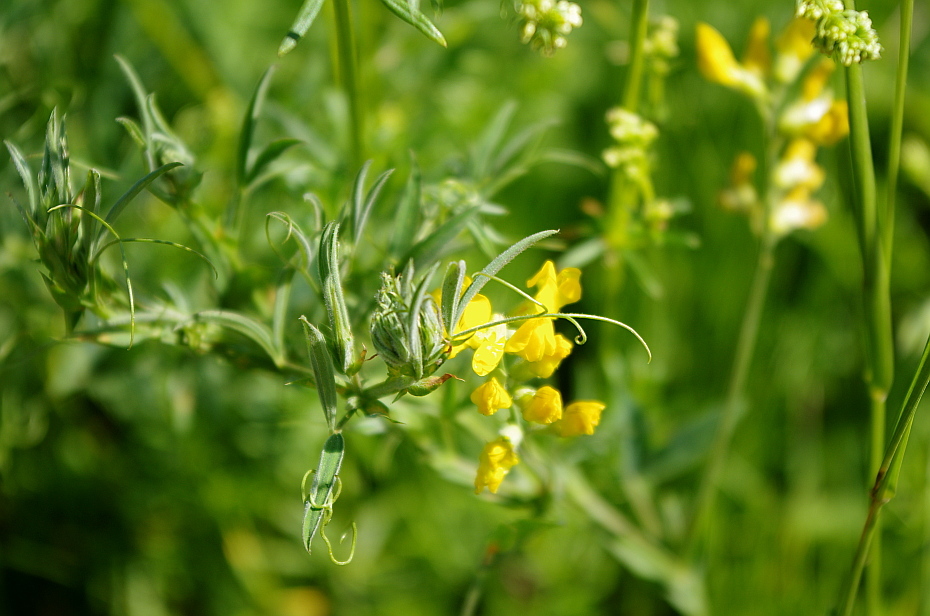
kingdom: Plantae
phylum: Tracheophyta
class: Magnoliopsida
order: Fabales
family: Fabaceae
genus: Lathyrus
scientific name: Lathyrus pratensis
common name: Meadow vetchling
